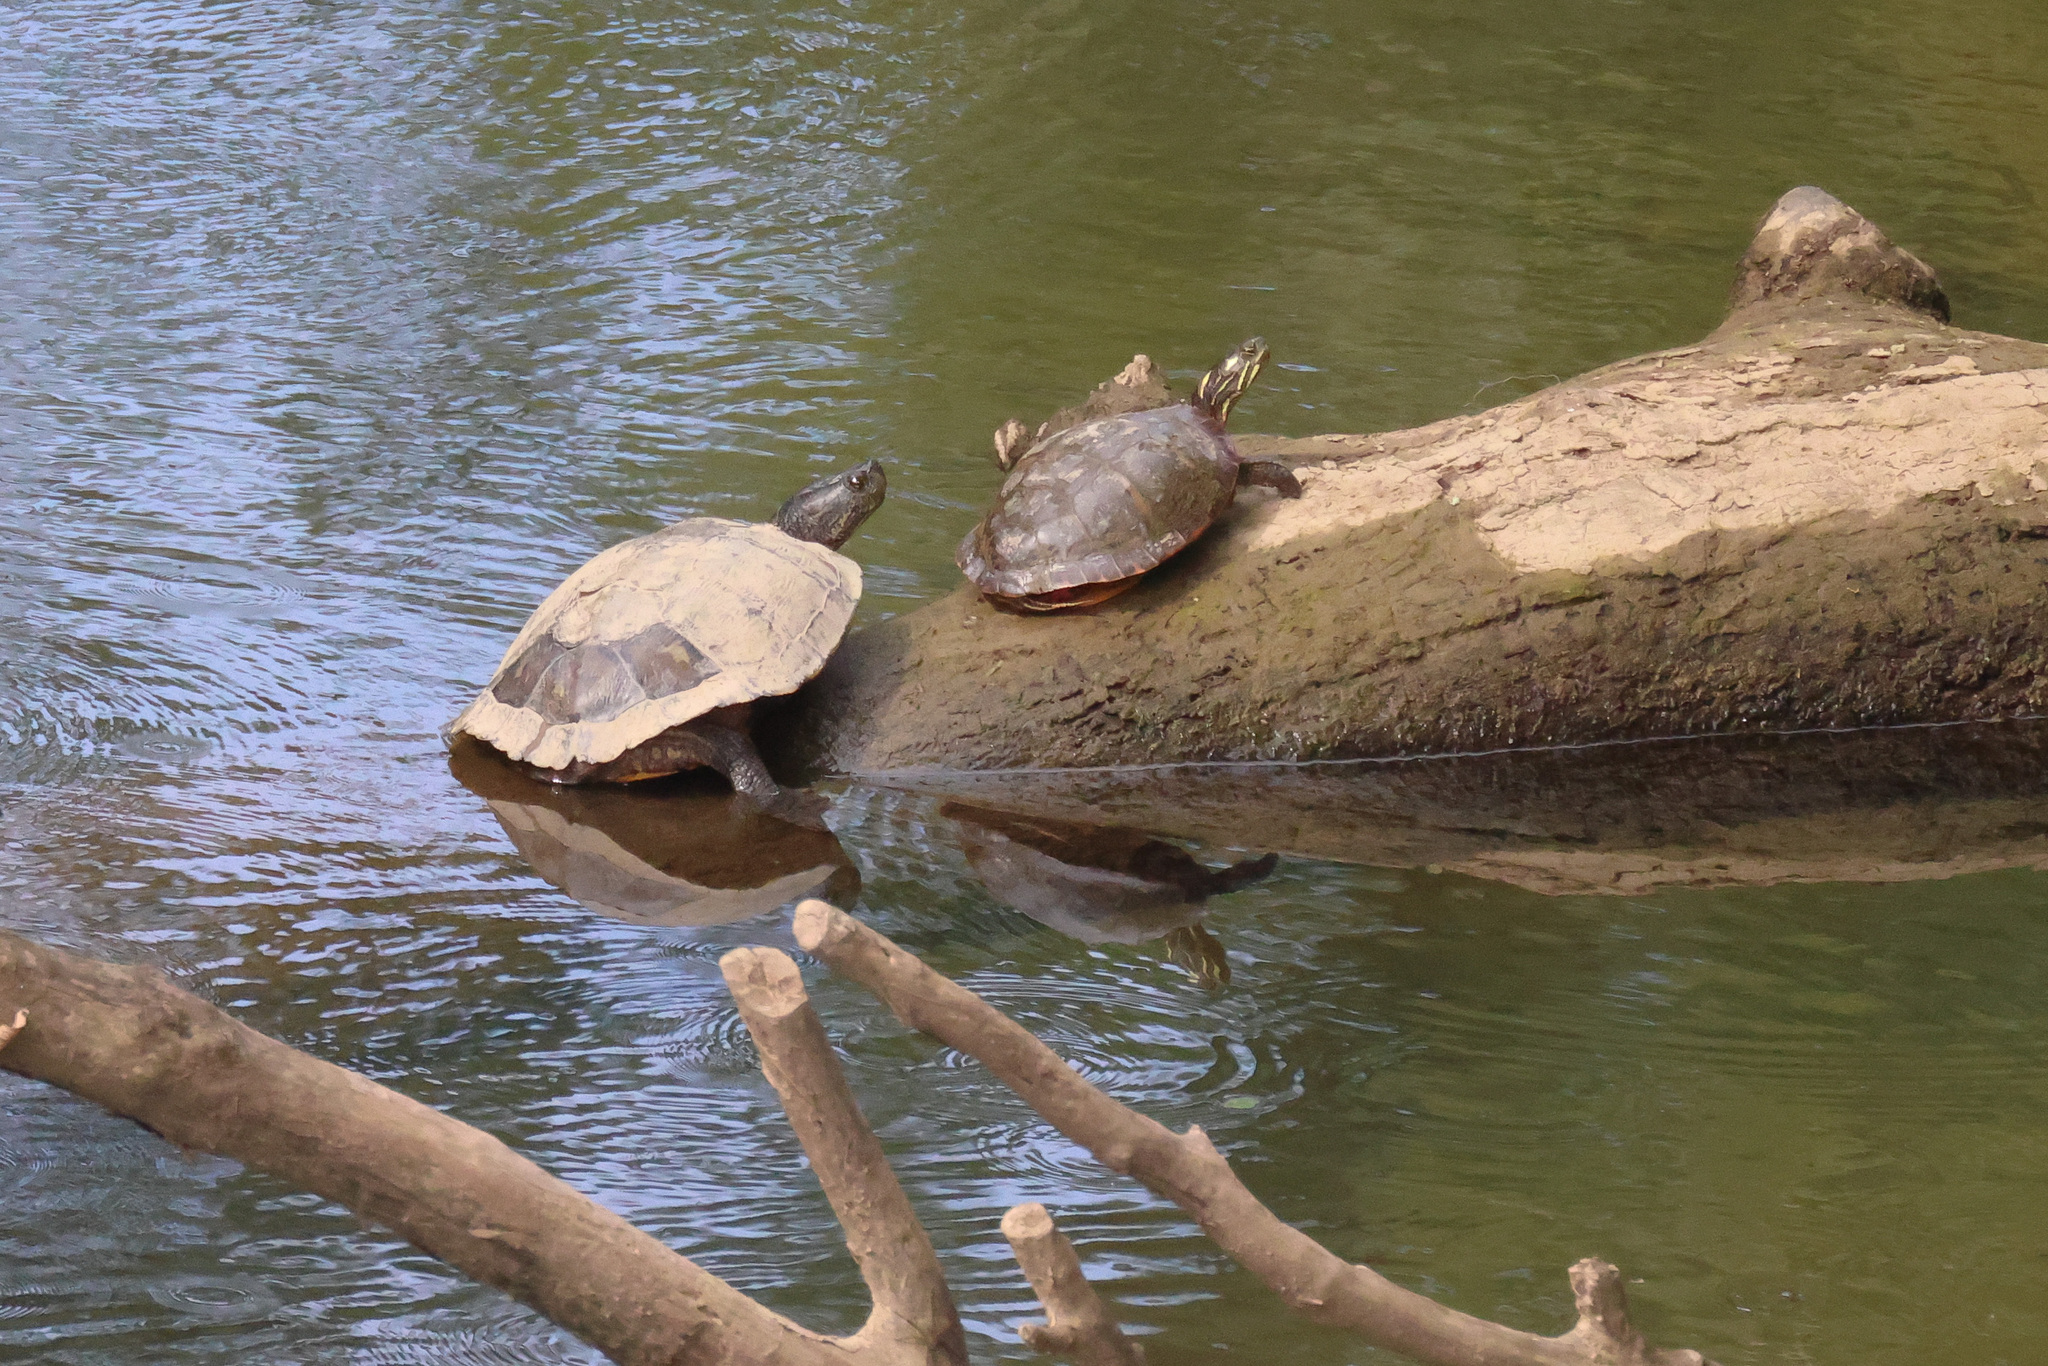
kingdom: Animalia
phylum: Chordata
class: Testudines
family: Emydidae
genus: Chrysemys
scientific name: Chrysemys picta
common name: Painted turtle
